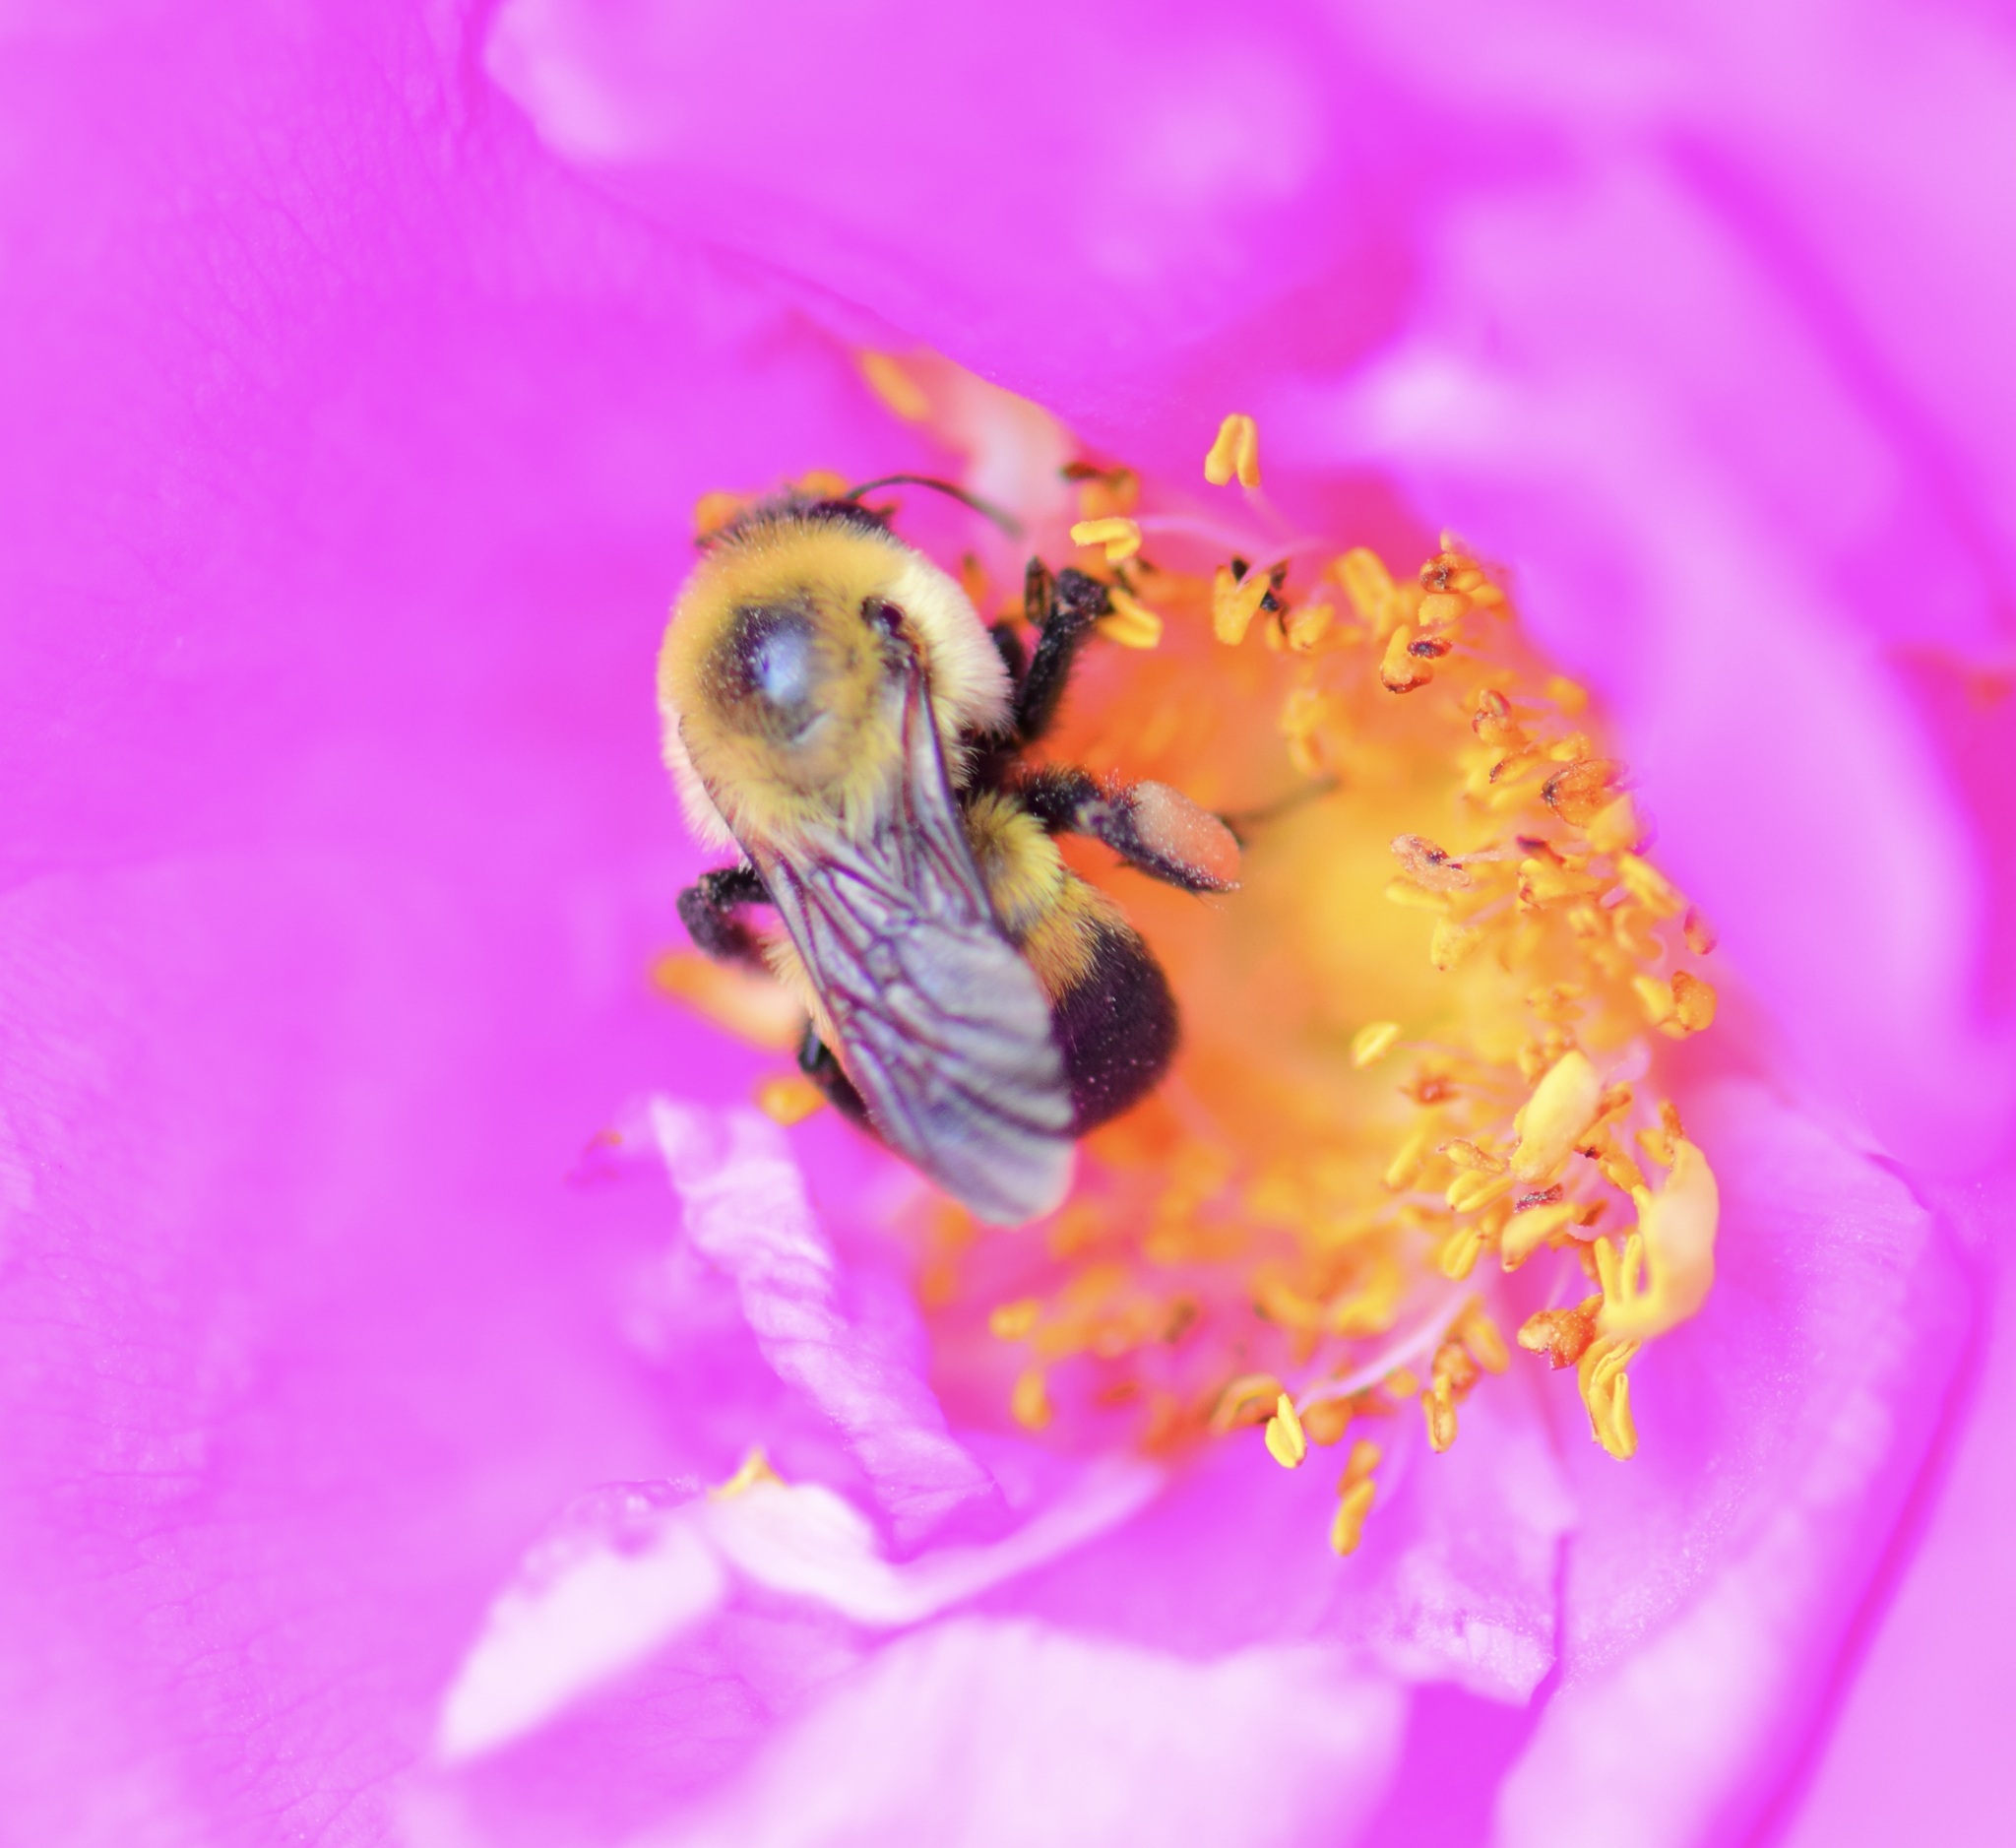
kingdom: Animalia
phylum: Arthropoda
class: Insecta
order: Hymenoptera
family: Apidae
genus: Bombus
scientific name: Bombus griseocollis
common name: Brown-belted bumble bee
